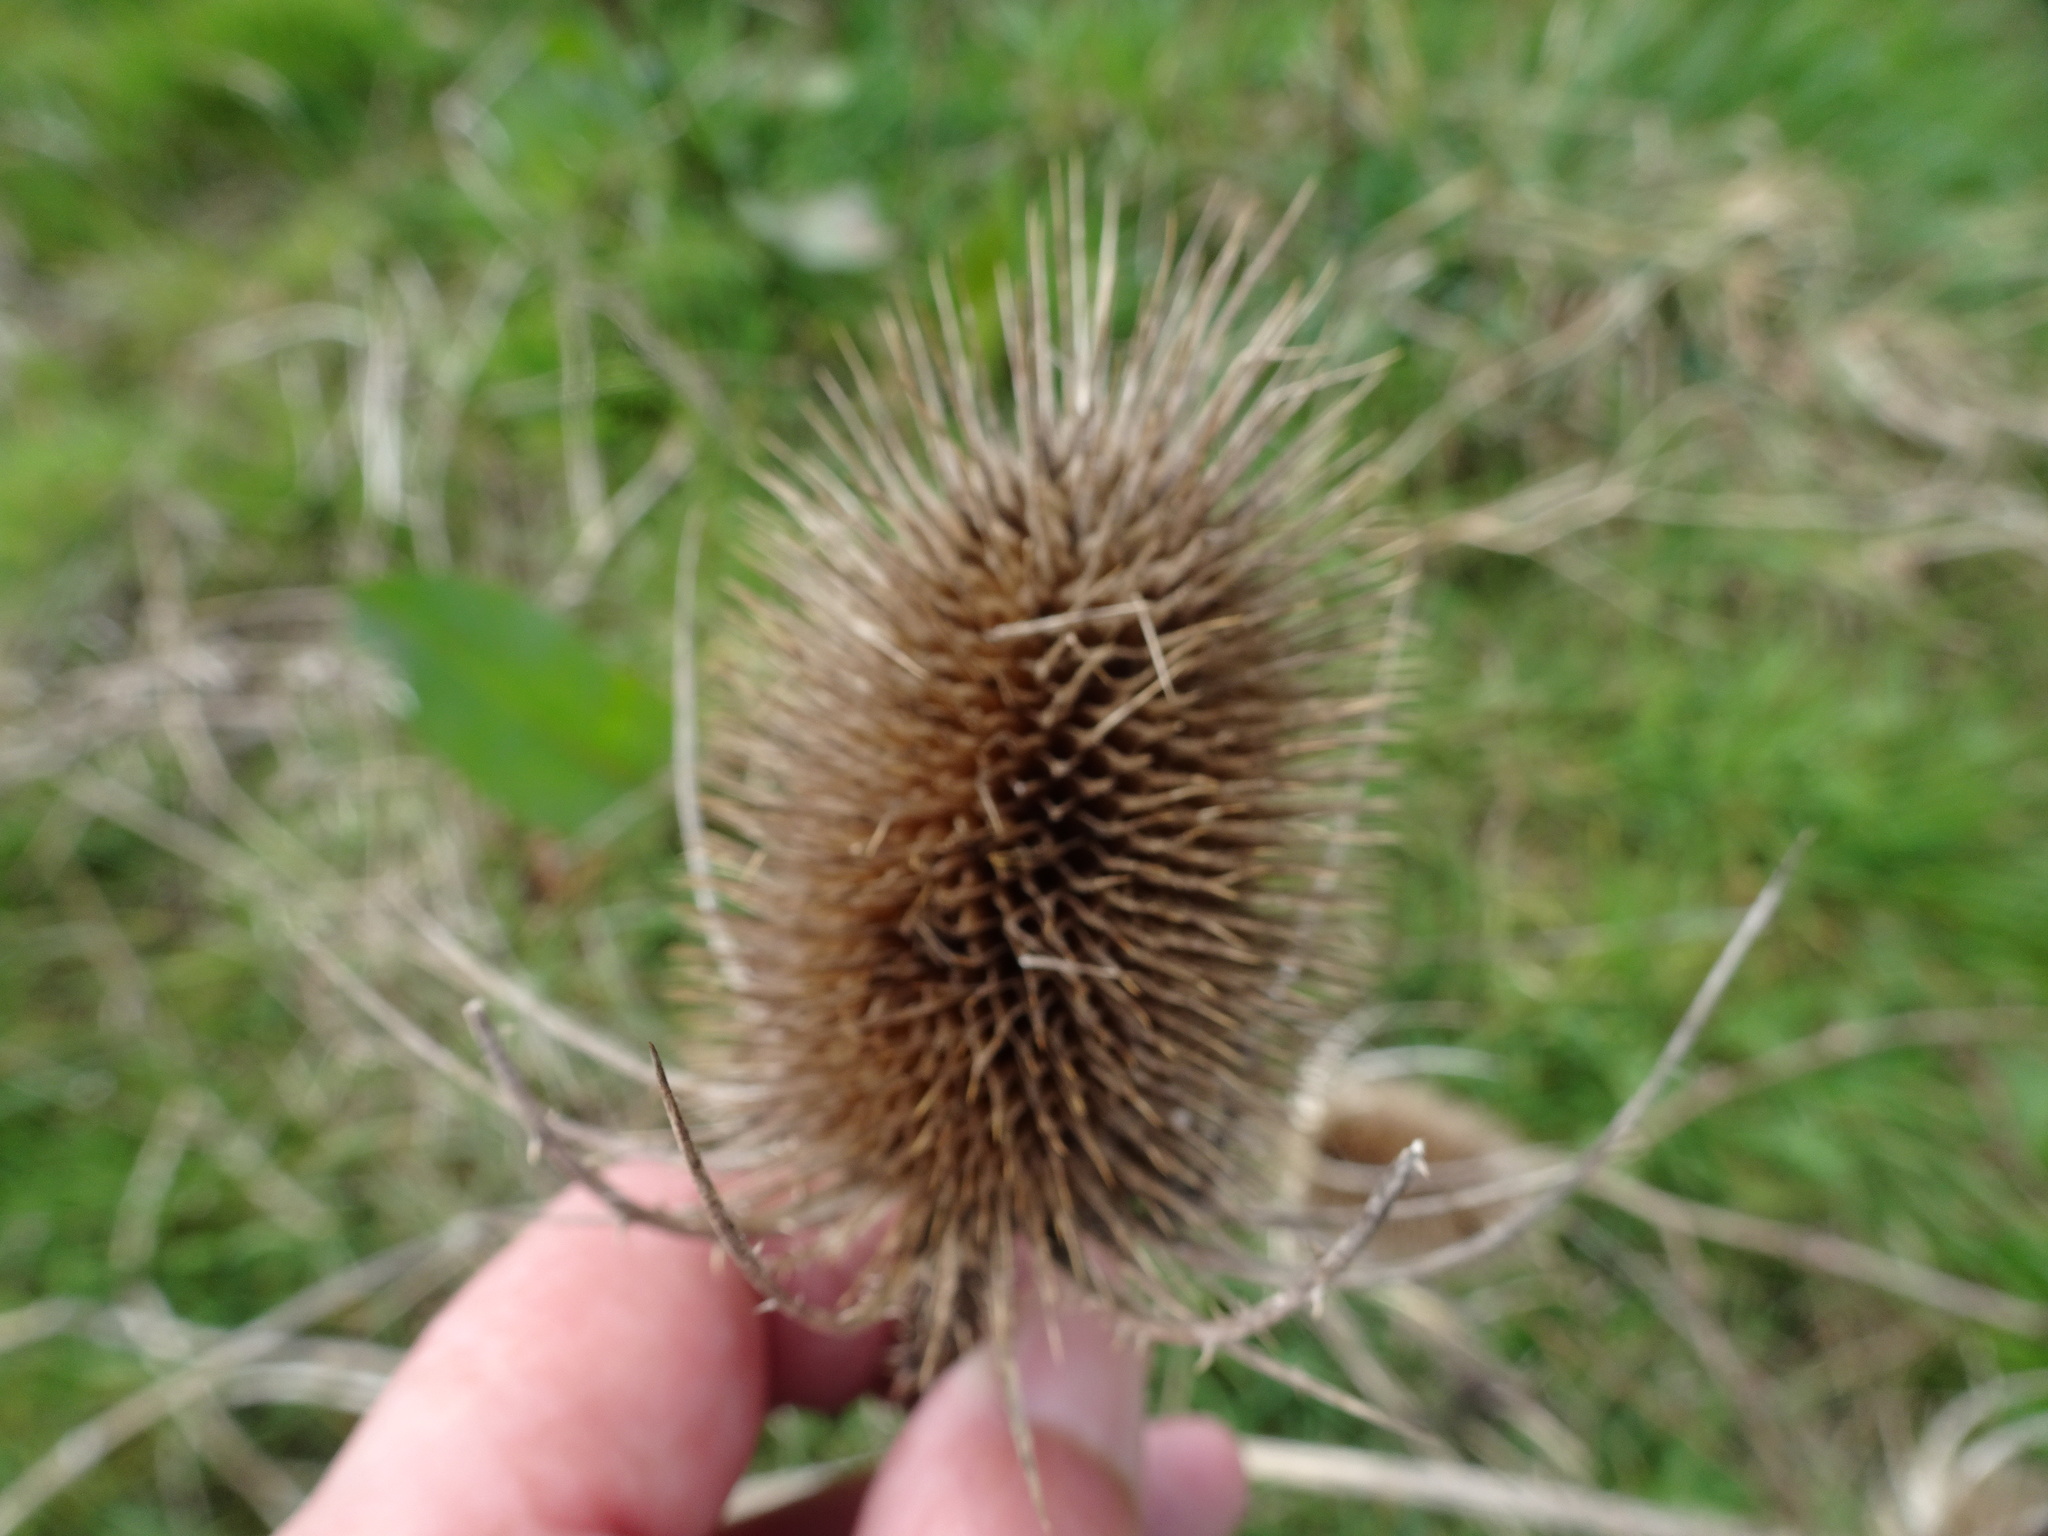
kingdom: Plantae
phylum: Tracheophyta
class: Magnoliopsida
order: Dipsacales
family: Caprifoliaceae
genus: Dipsacus
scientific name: Dipsacus fullonum
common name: Teasel
